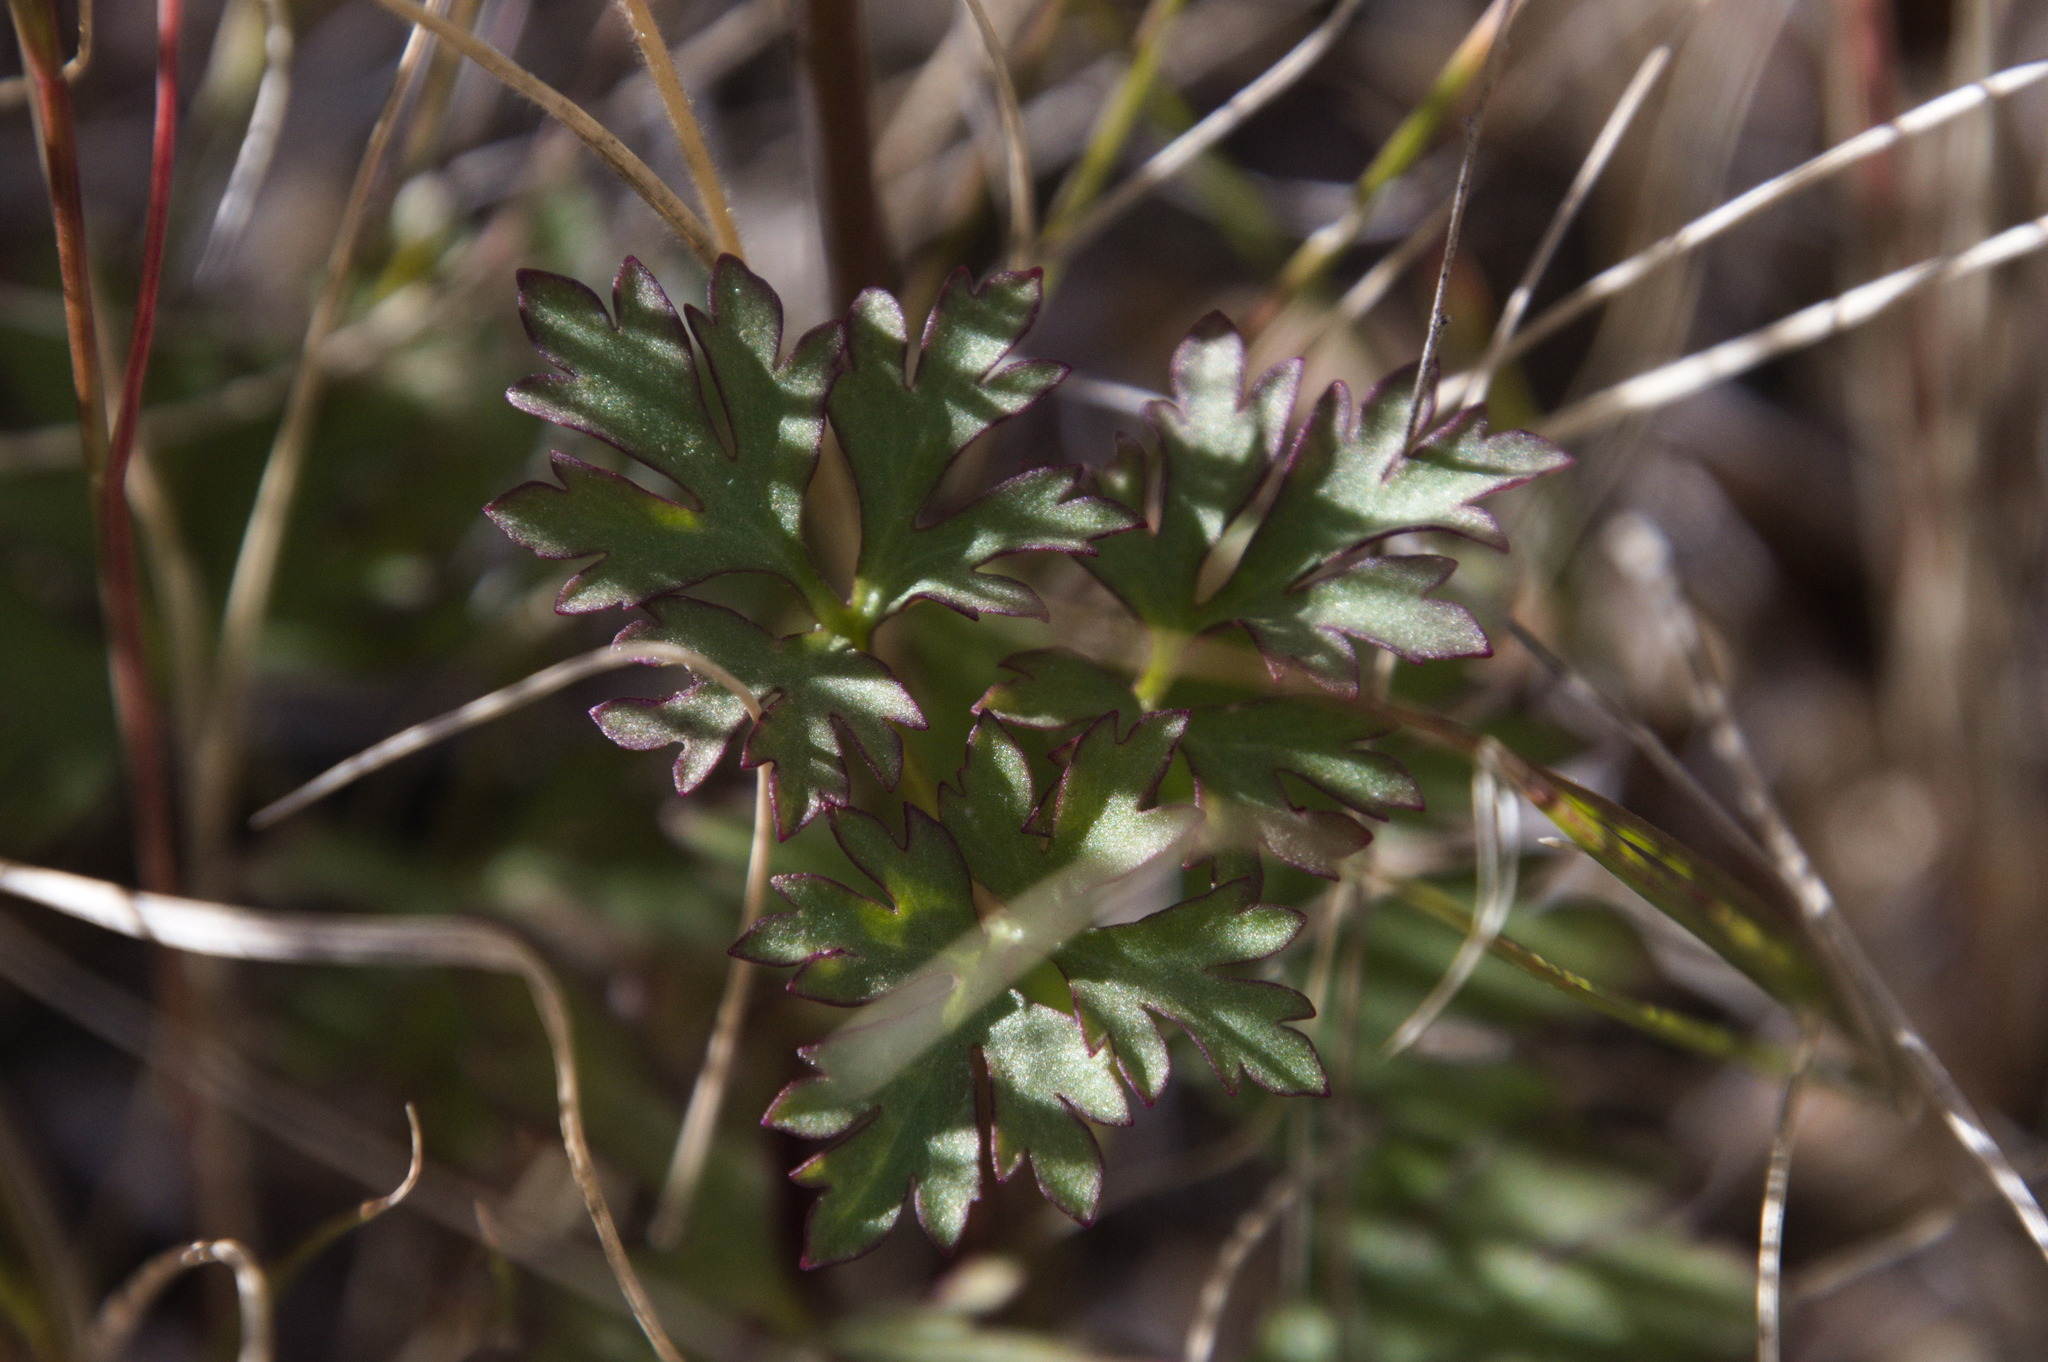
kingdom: Plantae
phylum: Tracheophyta
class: Magnoliopsida
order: Ranunculales
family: Ranunculaceae
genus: Anemone
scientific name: Anemone tuberosa
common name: Desert anemone
